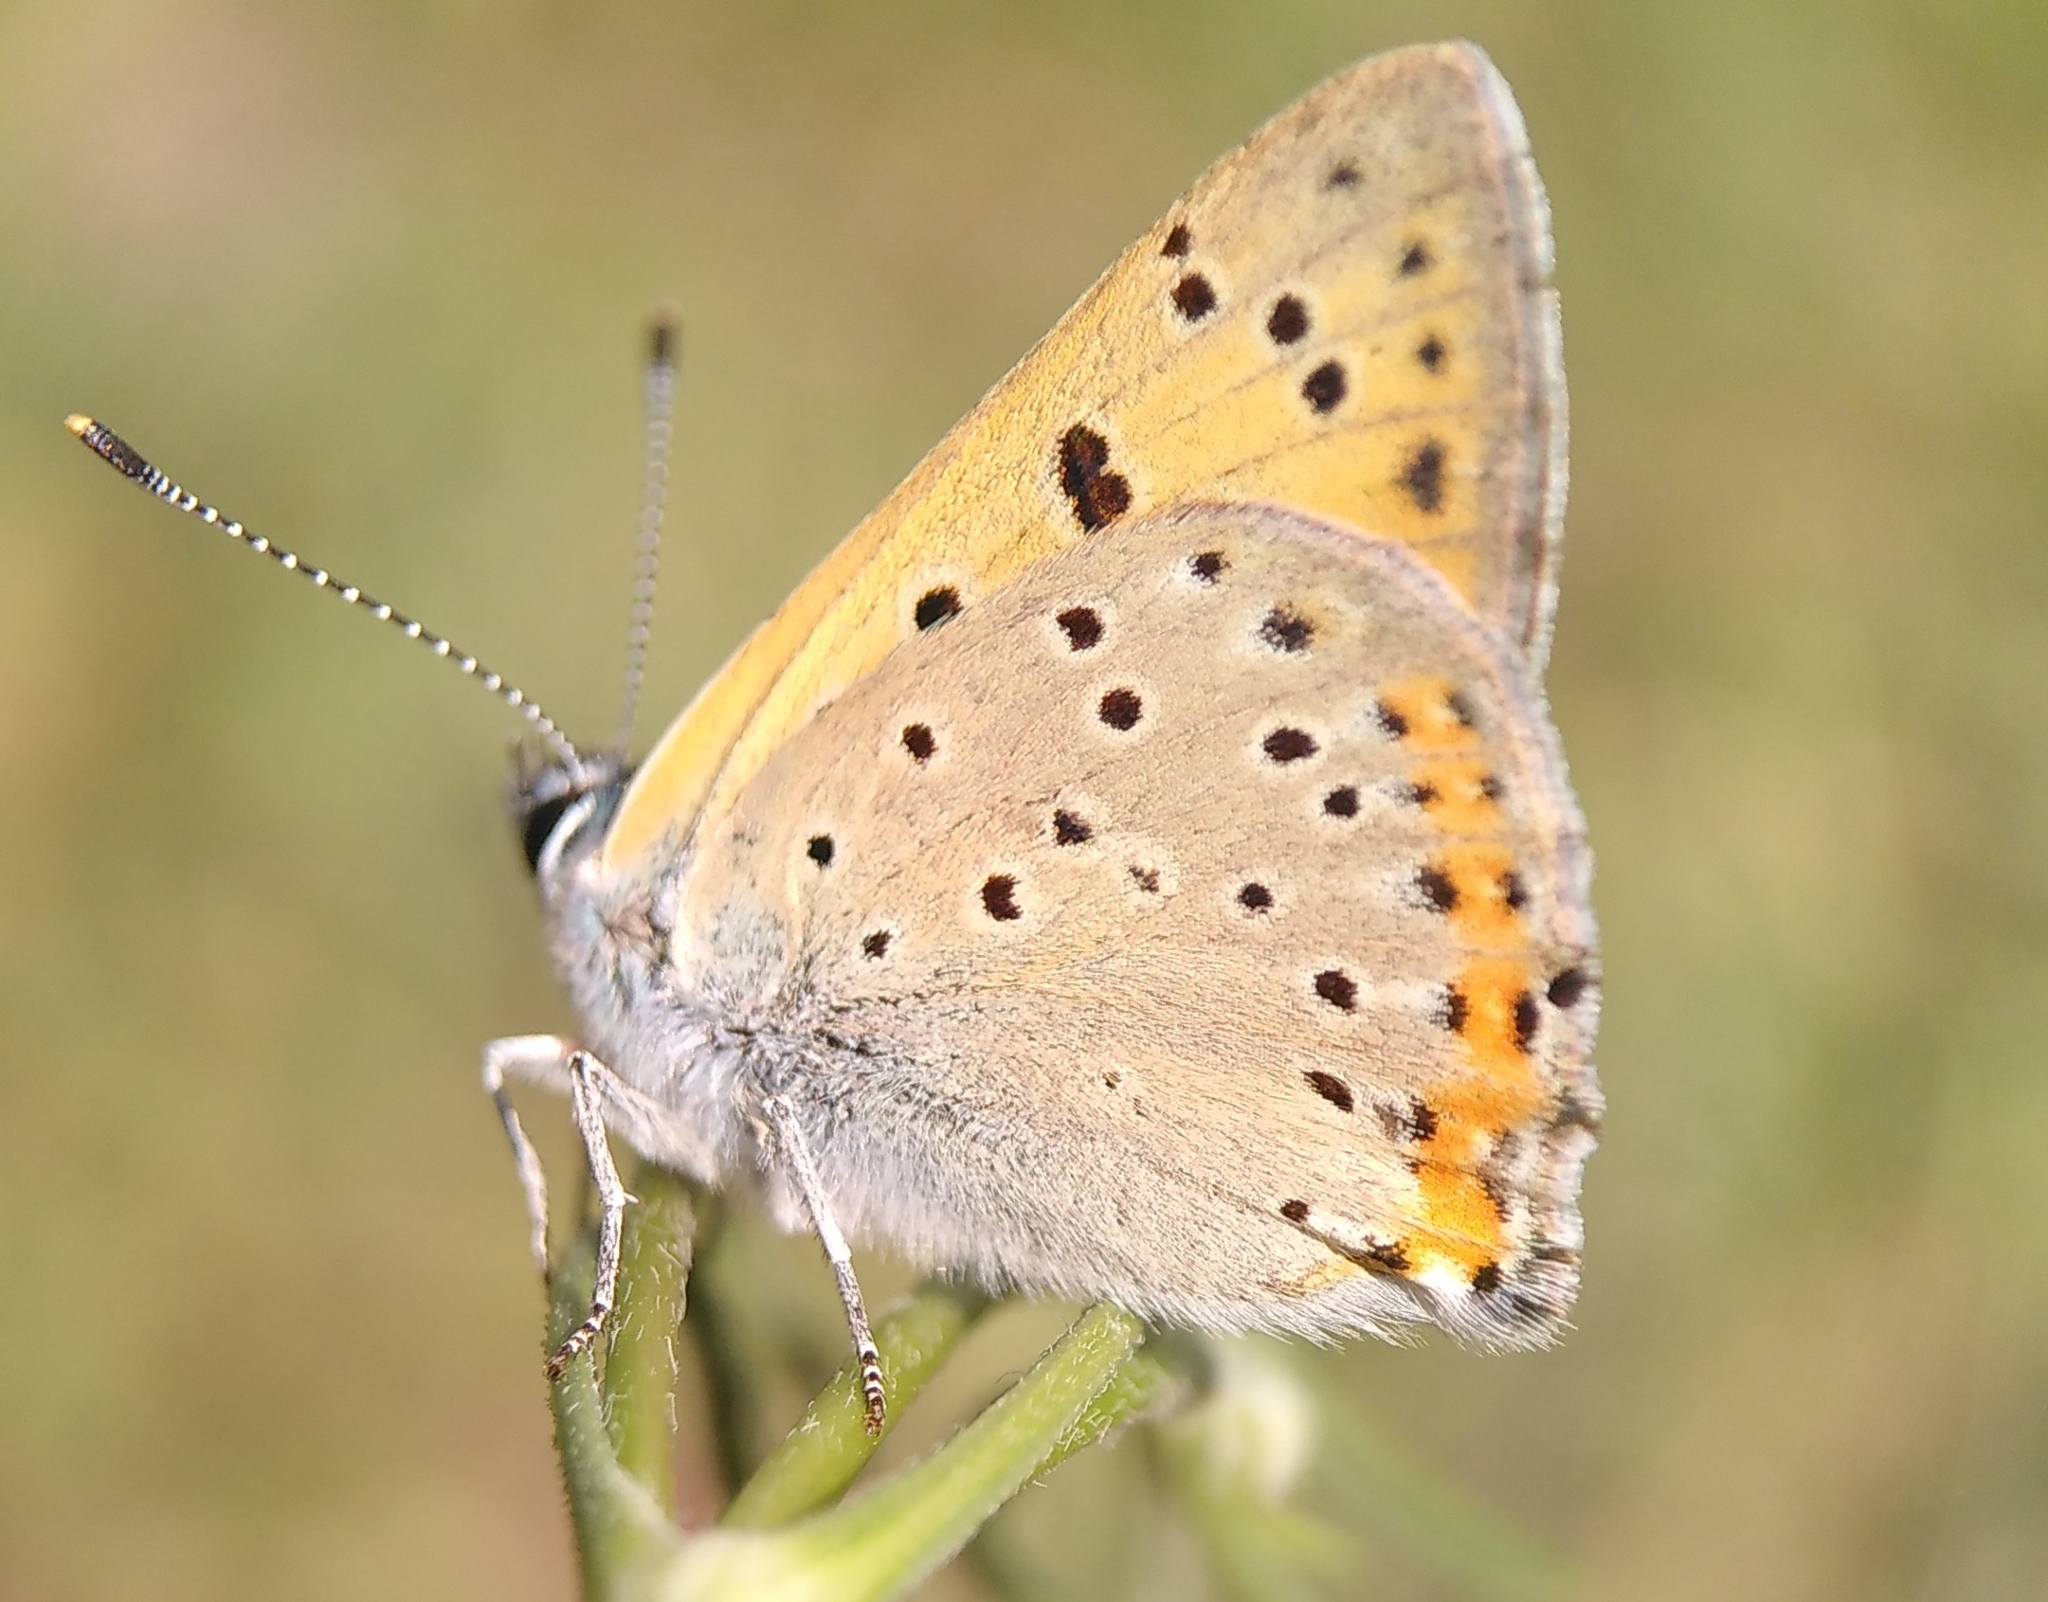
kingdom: Animalia
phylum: Arthropoda
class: Insecta
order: Lepidoptera
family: Lycaenidae
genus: Lycaena
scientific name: Lycaena alciphron
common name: Purple-shot copper
